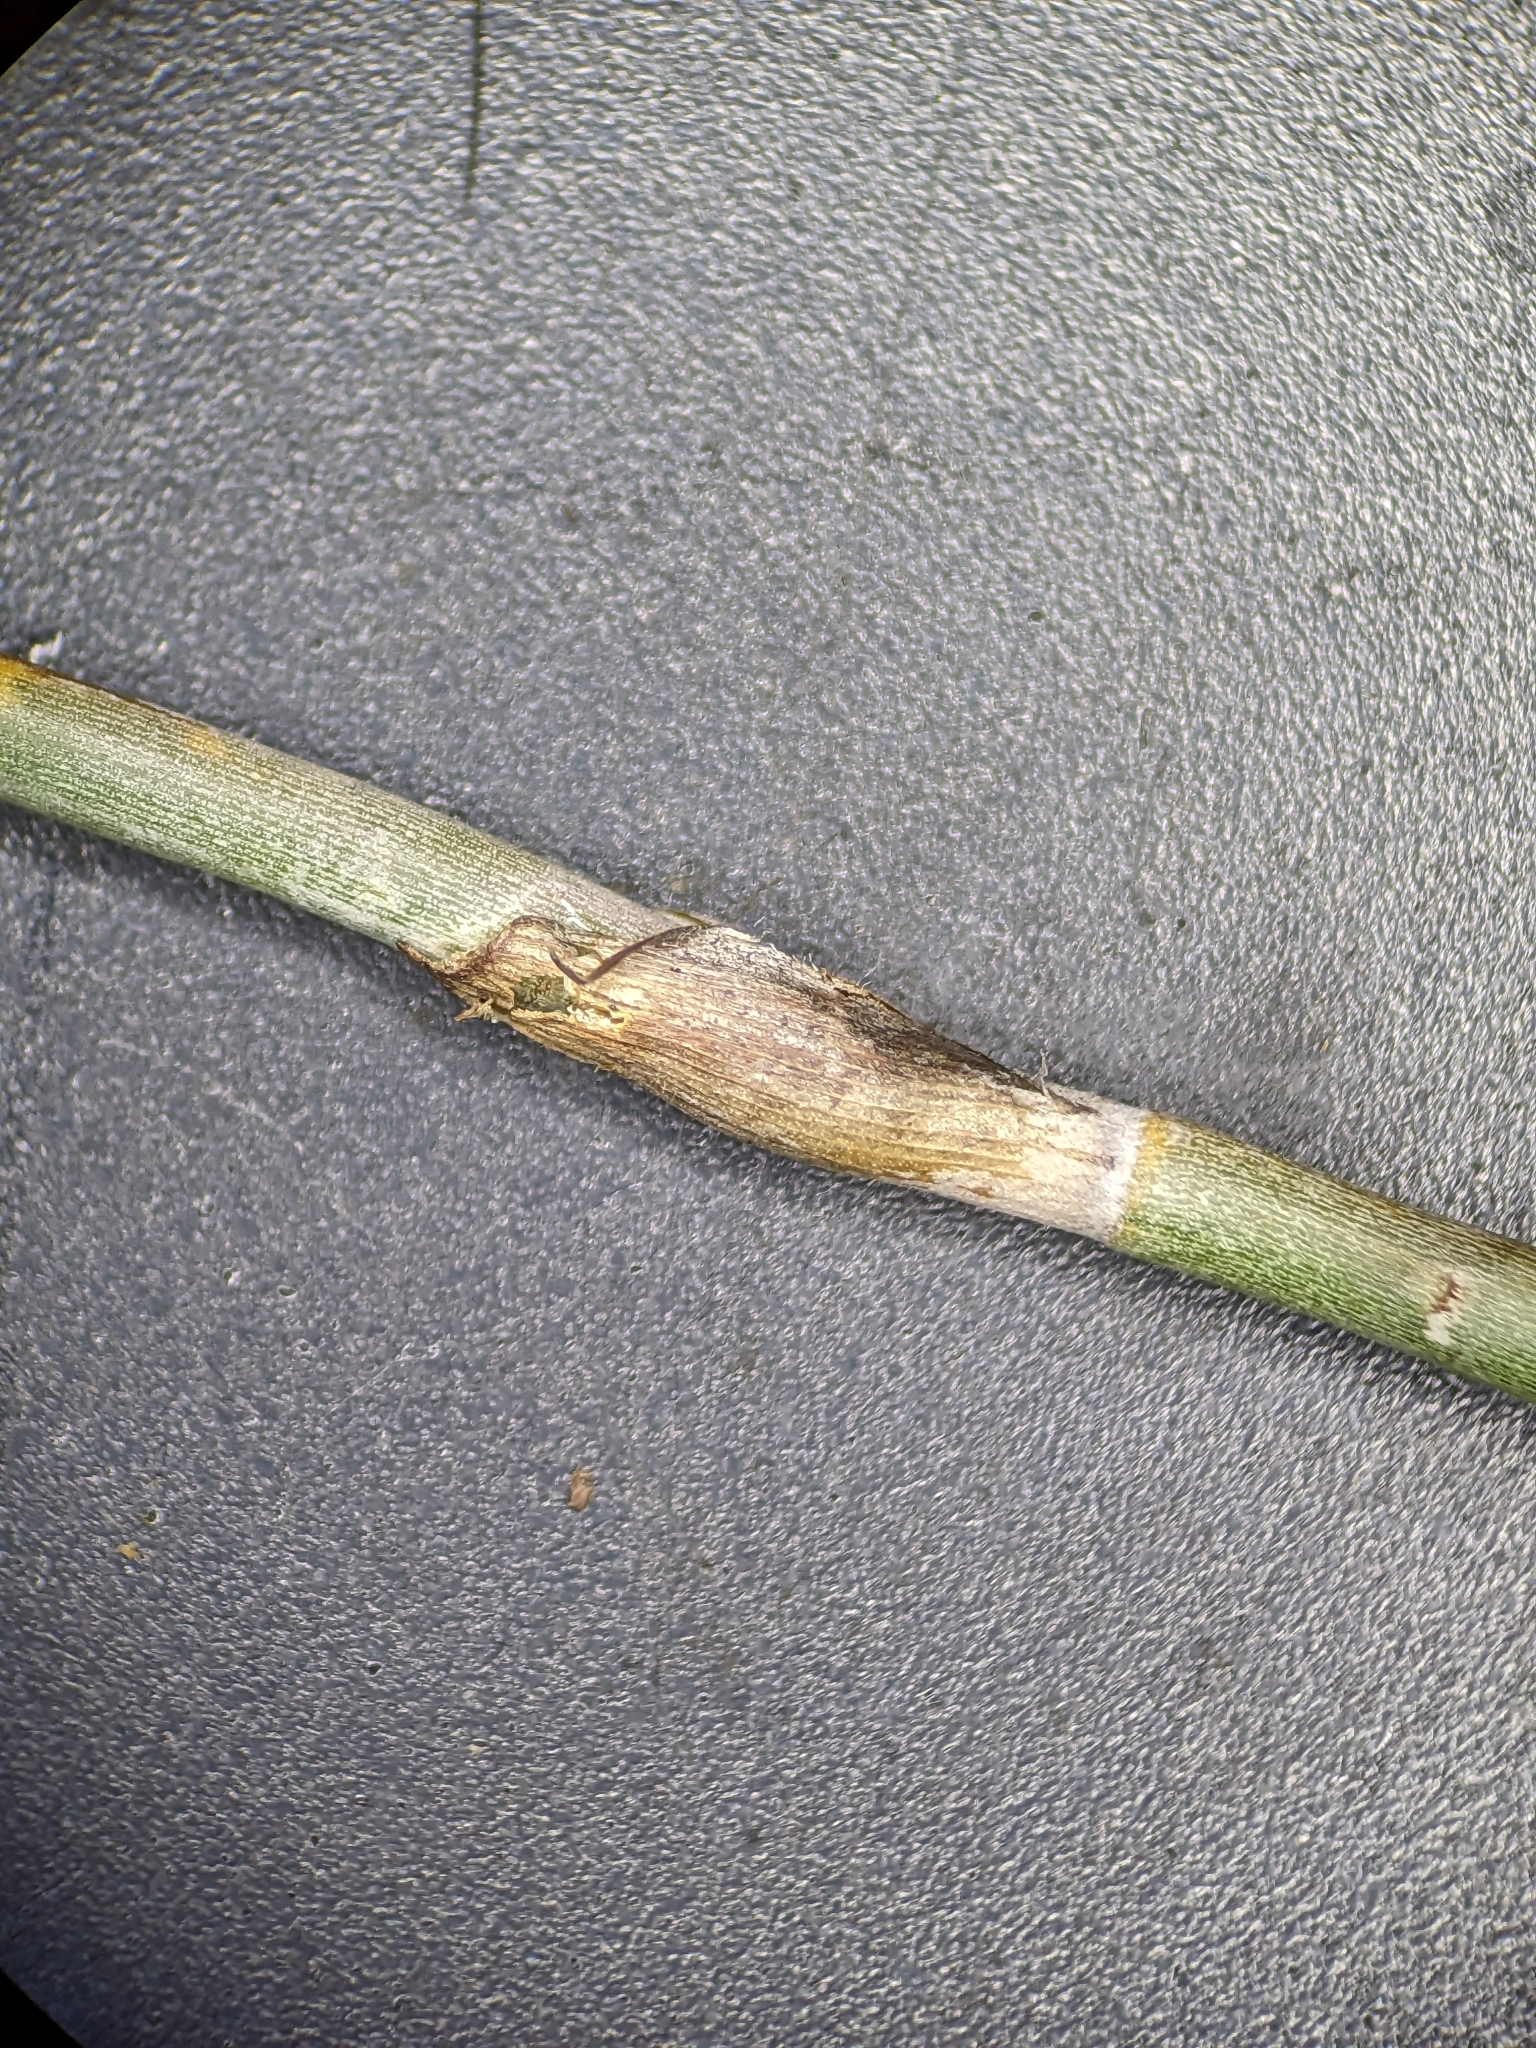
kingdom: Animalia
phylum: Arthropoda
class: Insecta
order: Hemiptera
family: Diaspididae
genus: Poliaspoides
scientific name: Poliaspoides leptocarpi
